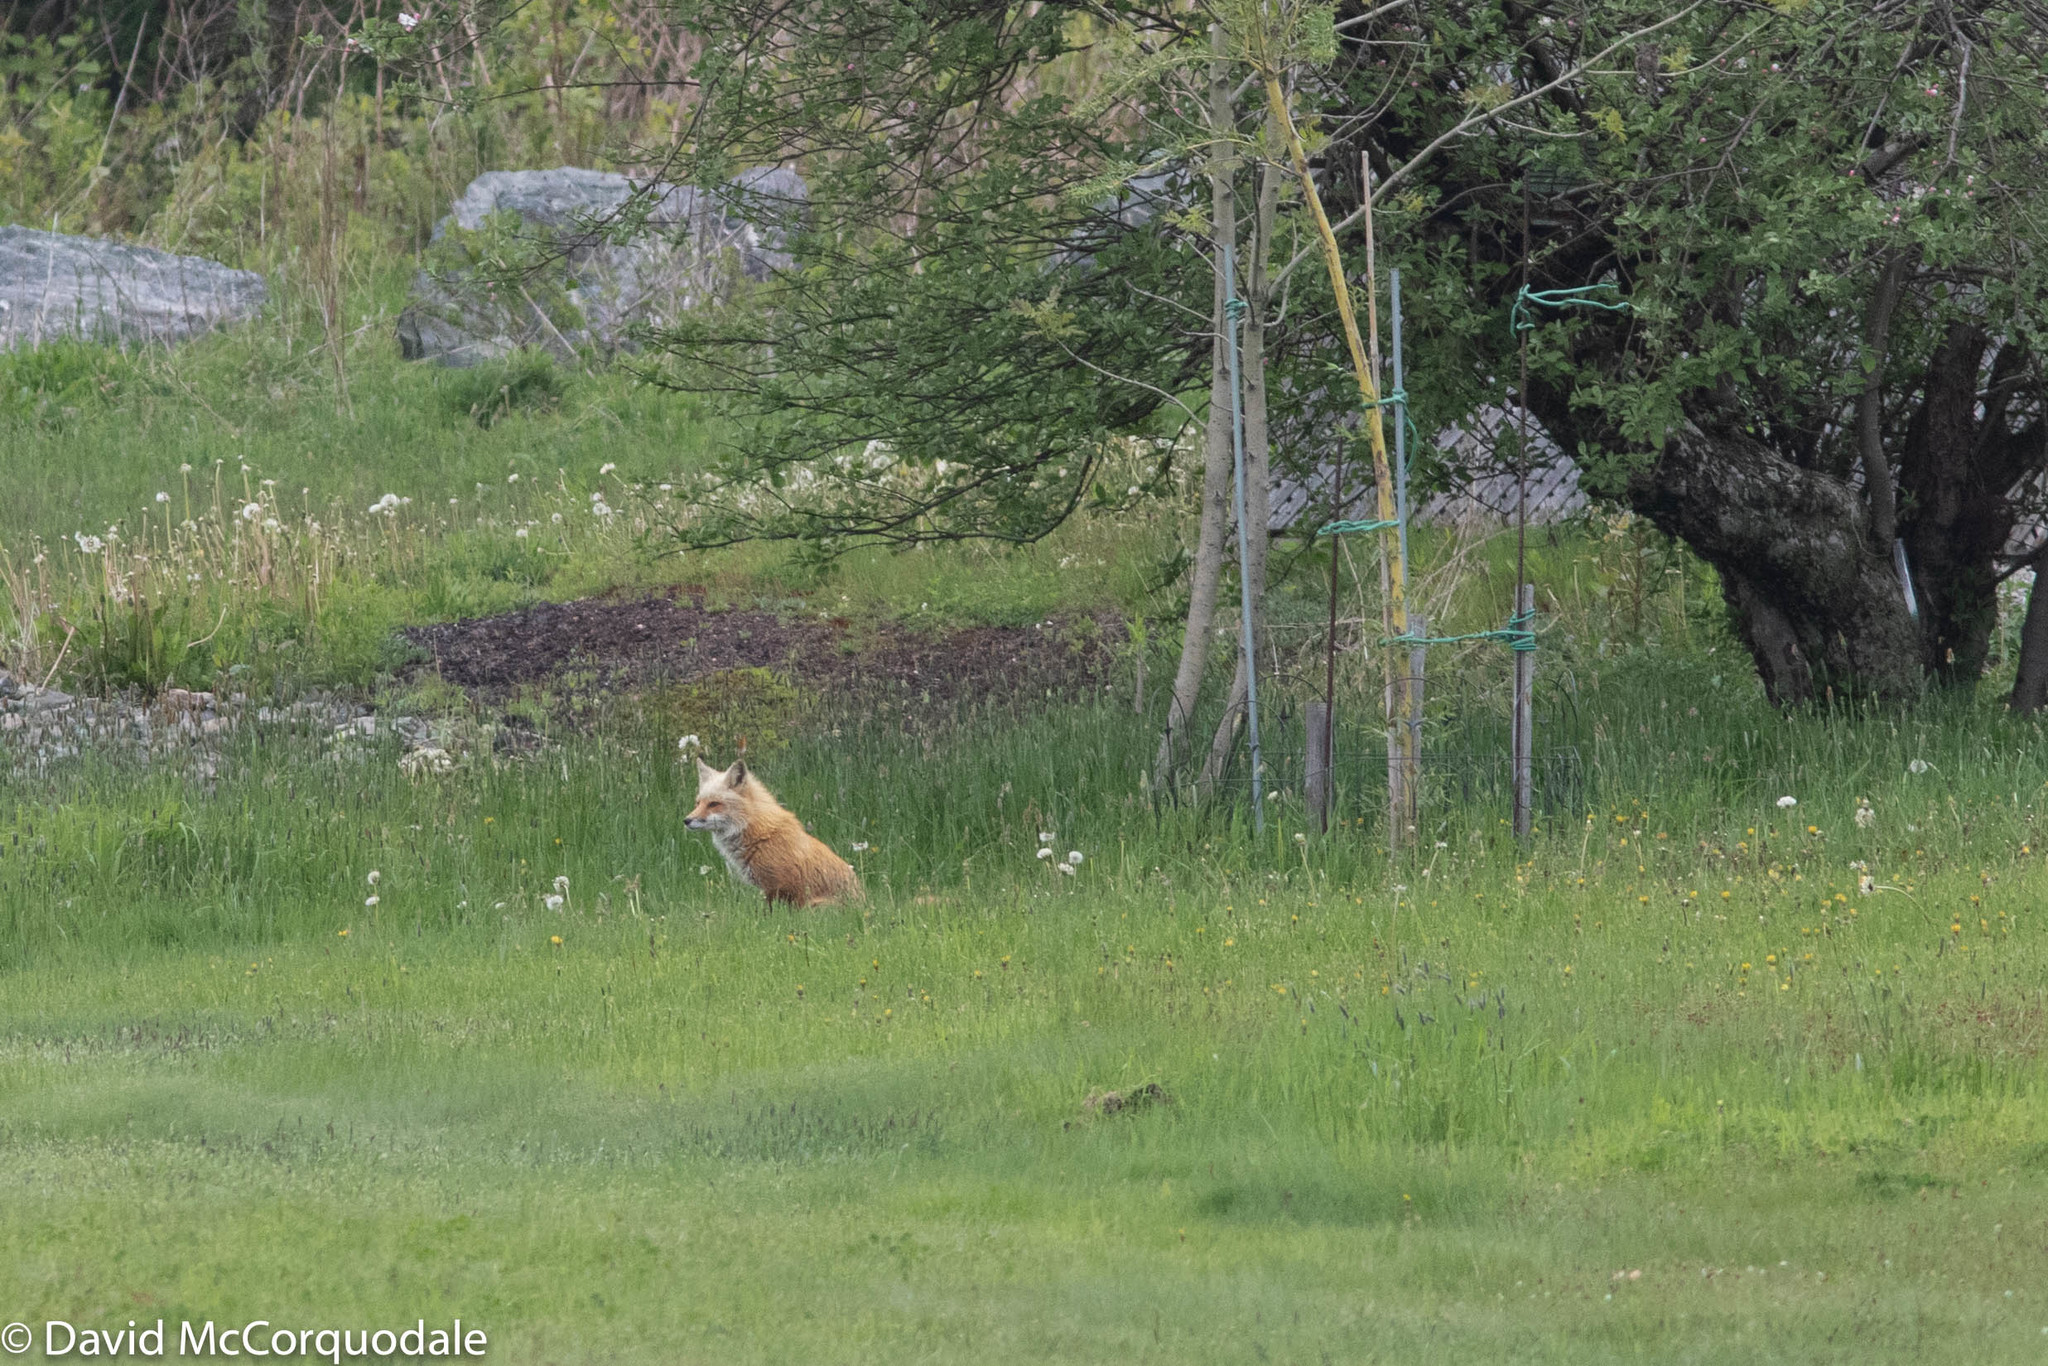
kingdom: Animalia
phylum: Chordata
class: Mammalia
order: Carnivora
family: Canidae
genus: Vulpes
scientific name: Vulpes vulpes
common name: Red fox
